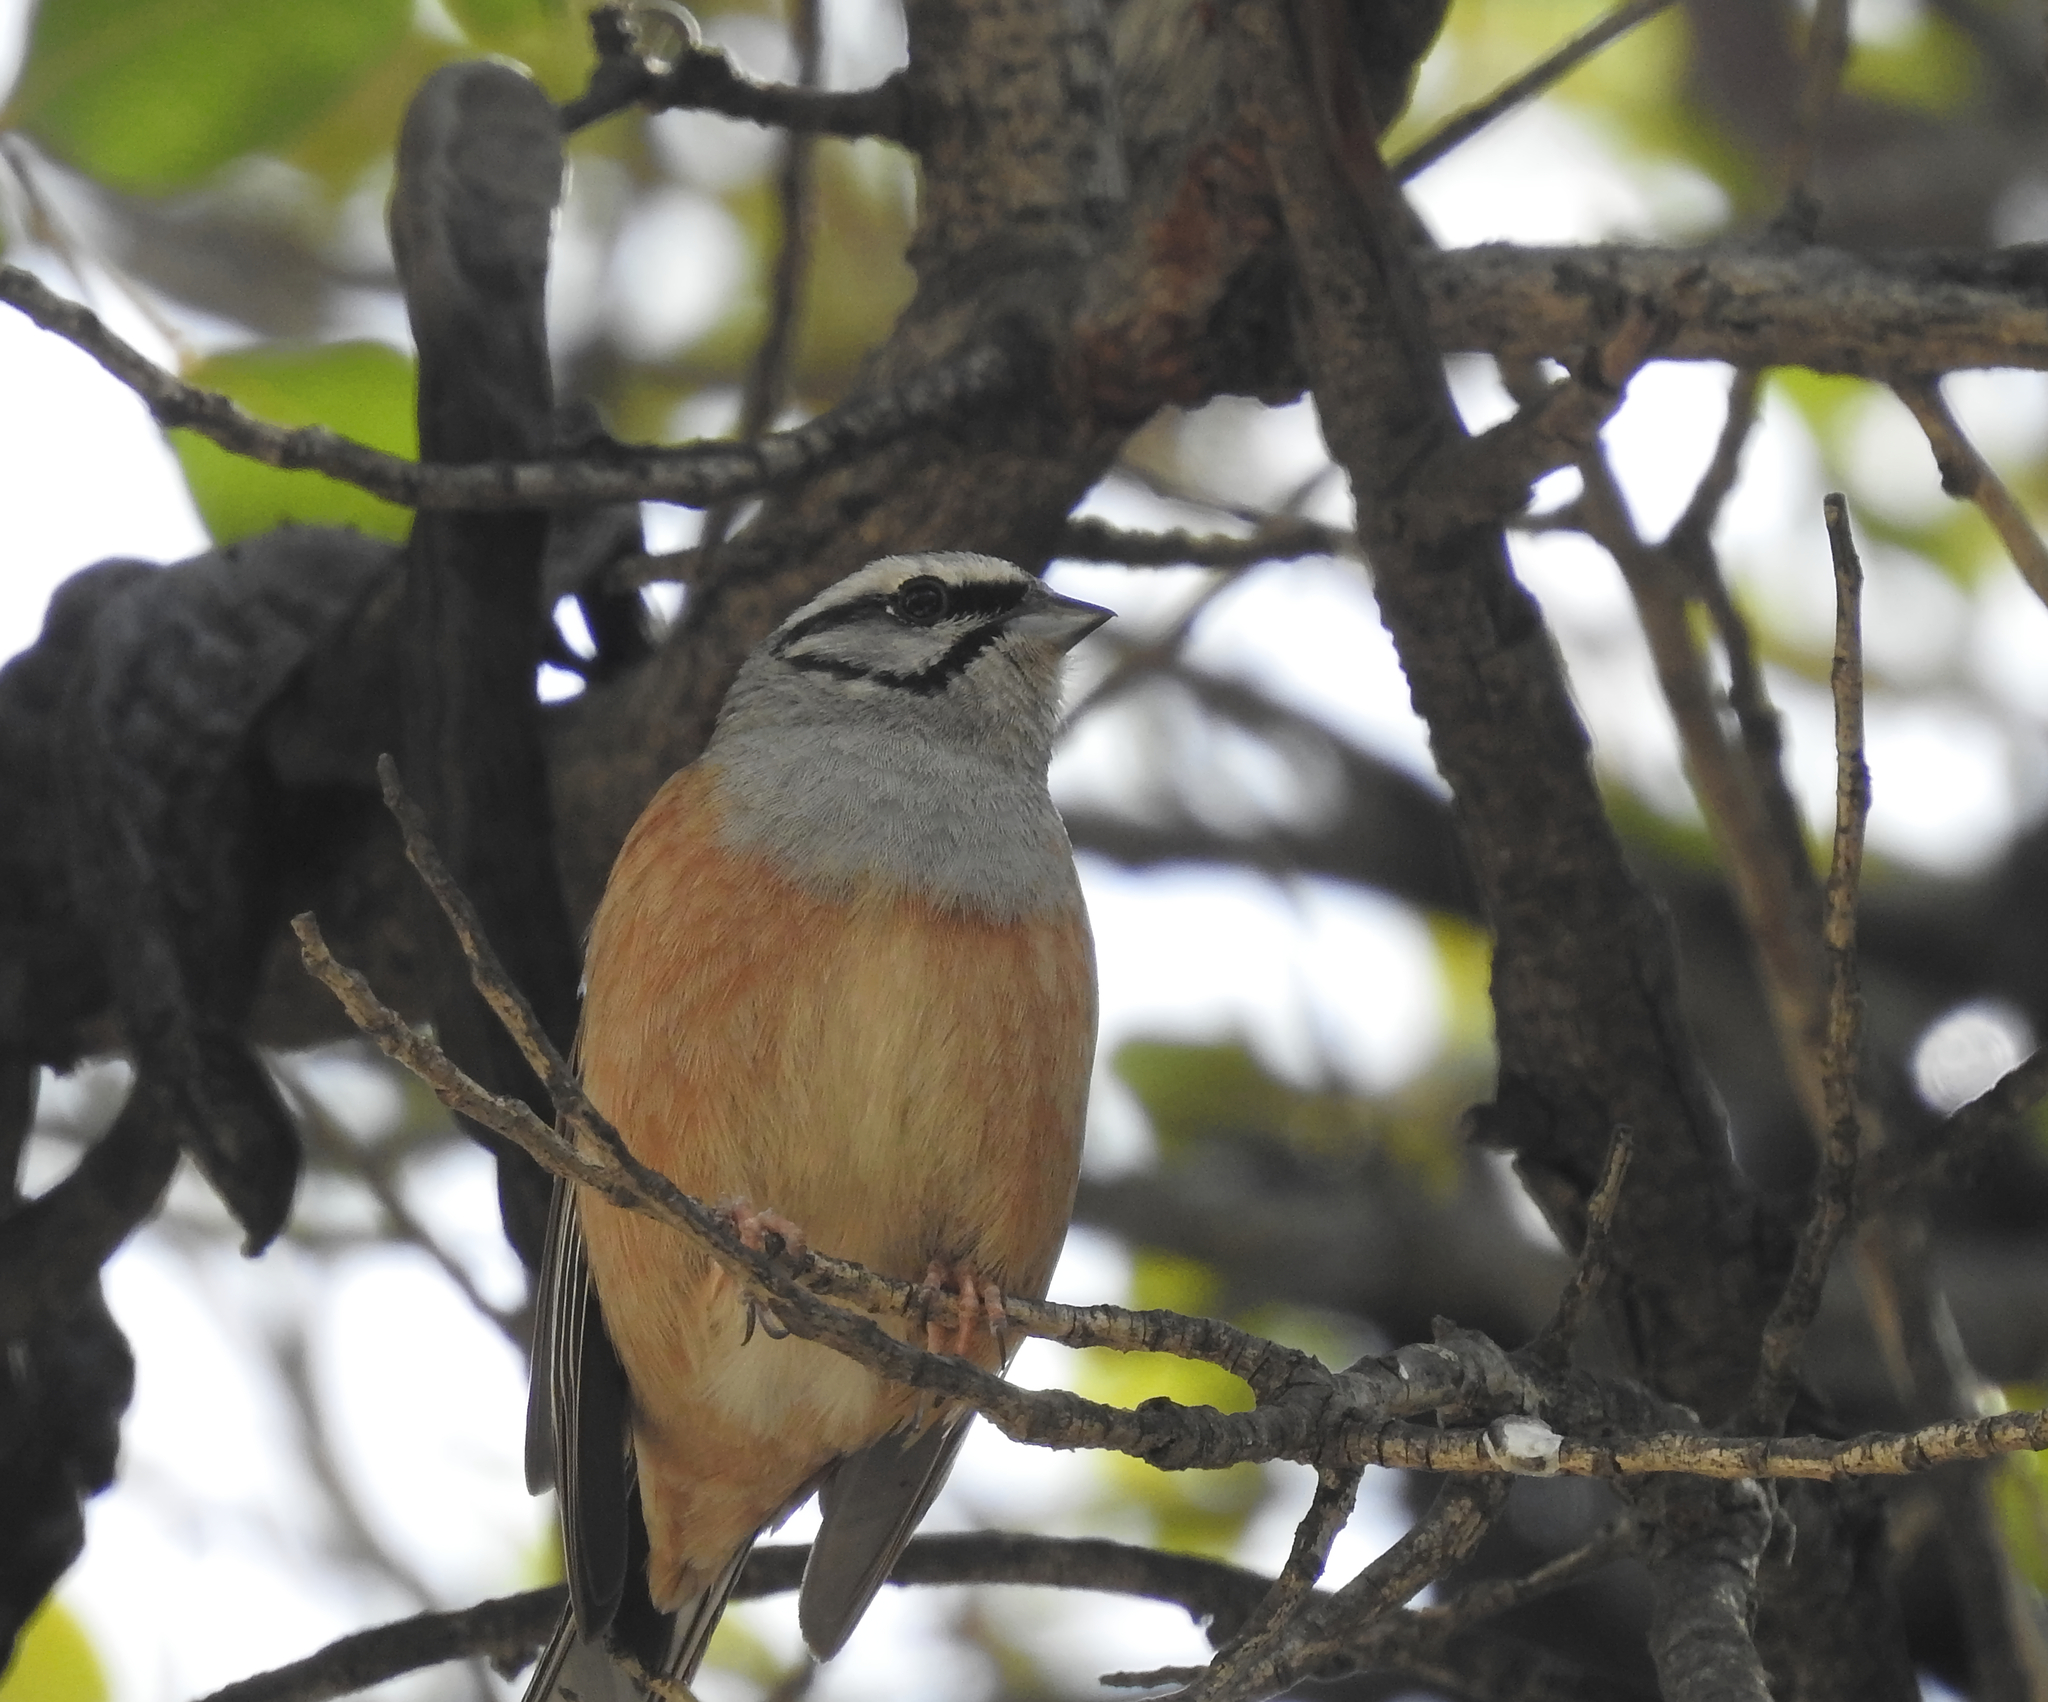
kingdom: Animalia
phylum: Chordata
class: Aves
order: Passeriformes
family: Emberizidae
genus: Emberiza
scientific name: Emberiza cia
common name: Rock bunting
